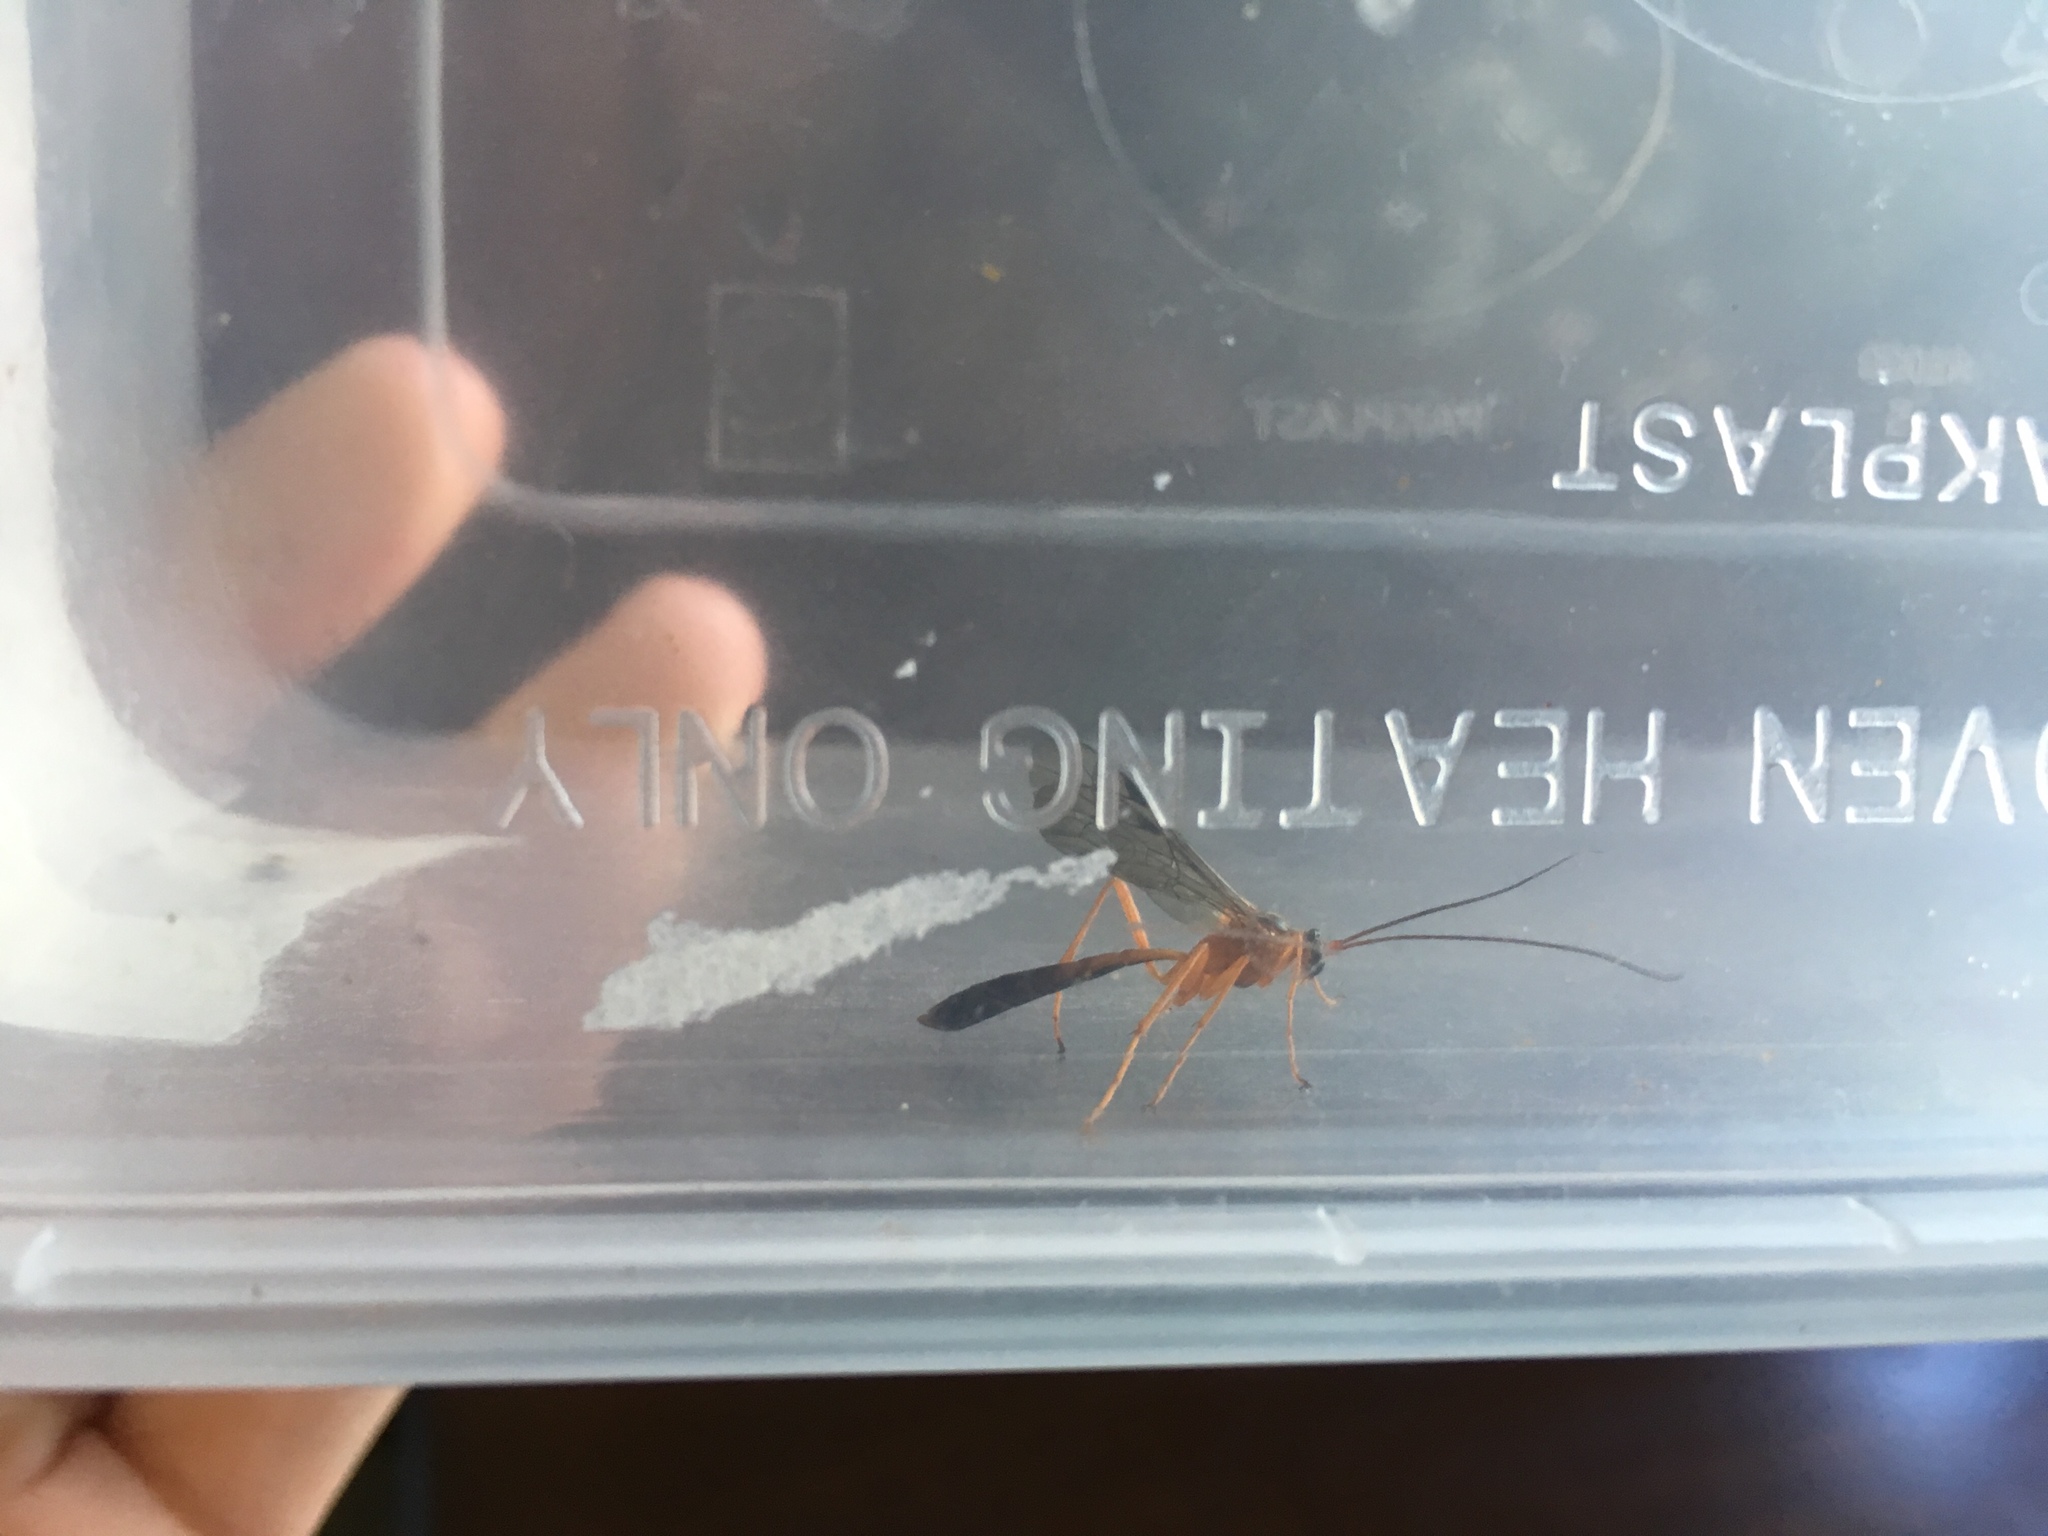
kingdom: Animalia
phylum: Arthropoda
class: Insecta
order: Hymenoptera
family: Ichneumonidae
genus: Netelia
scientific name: Netelia ephippiata
